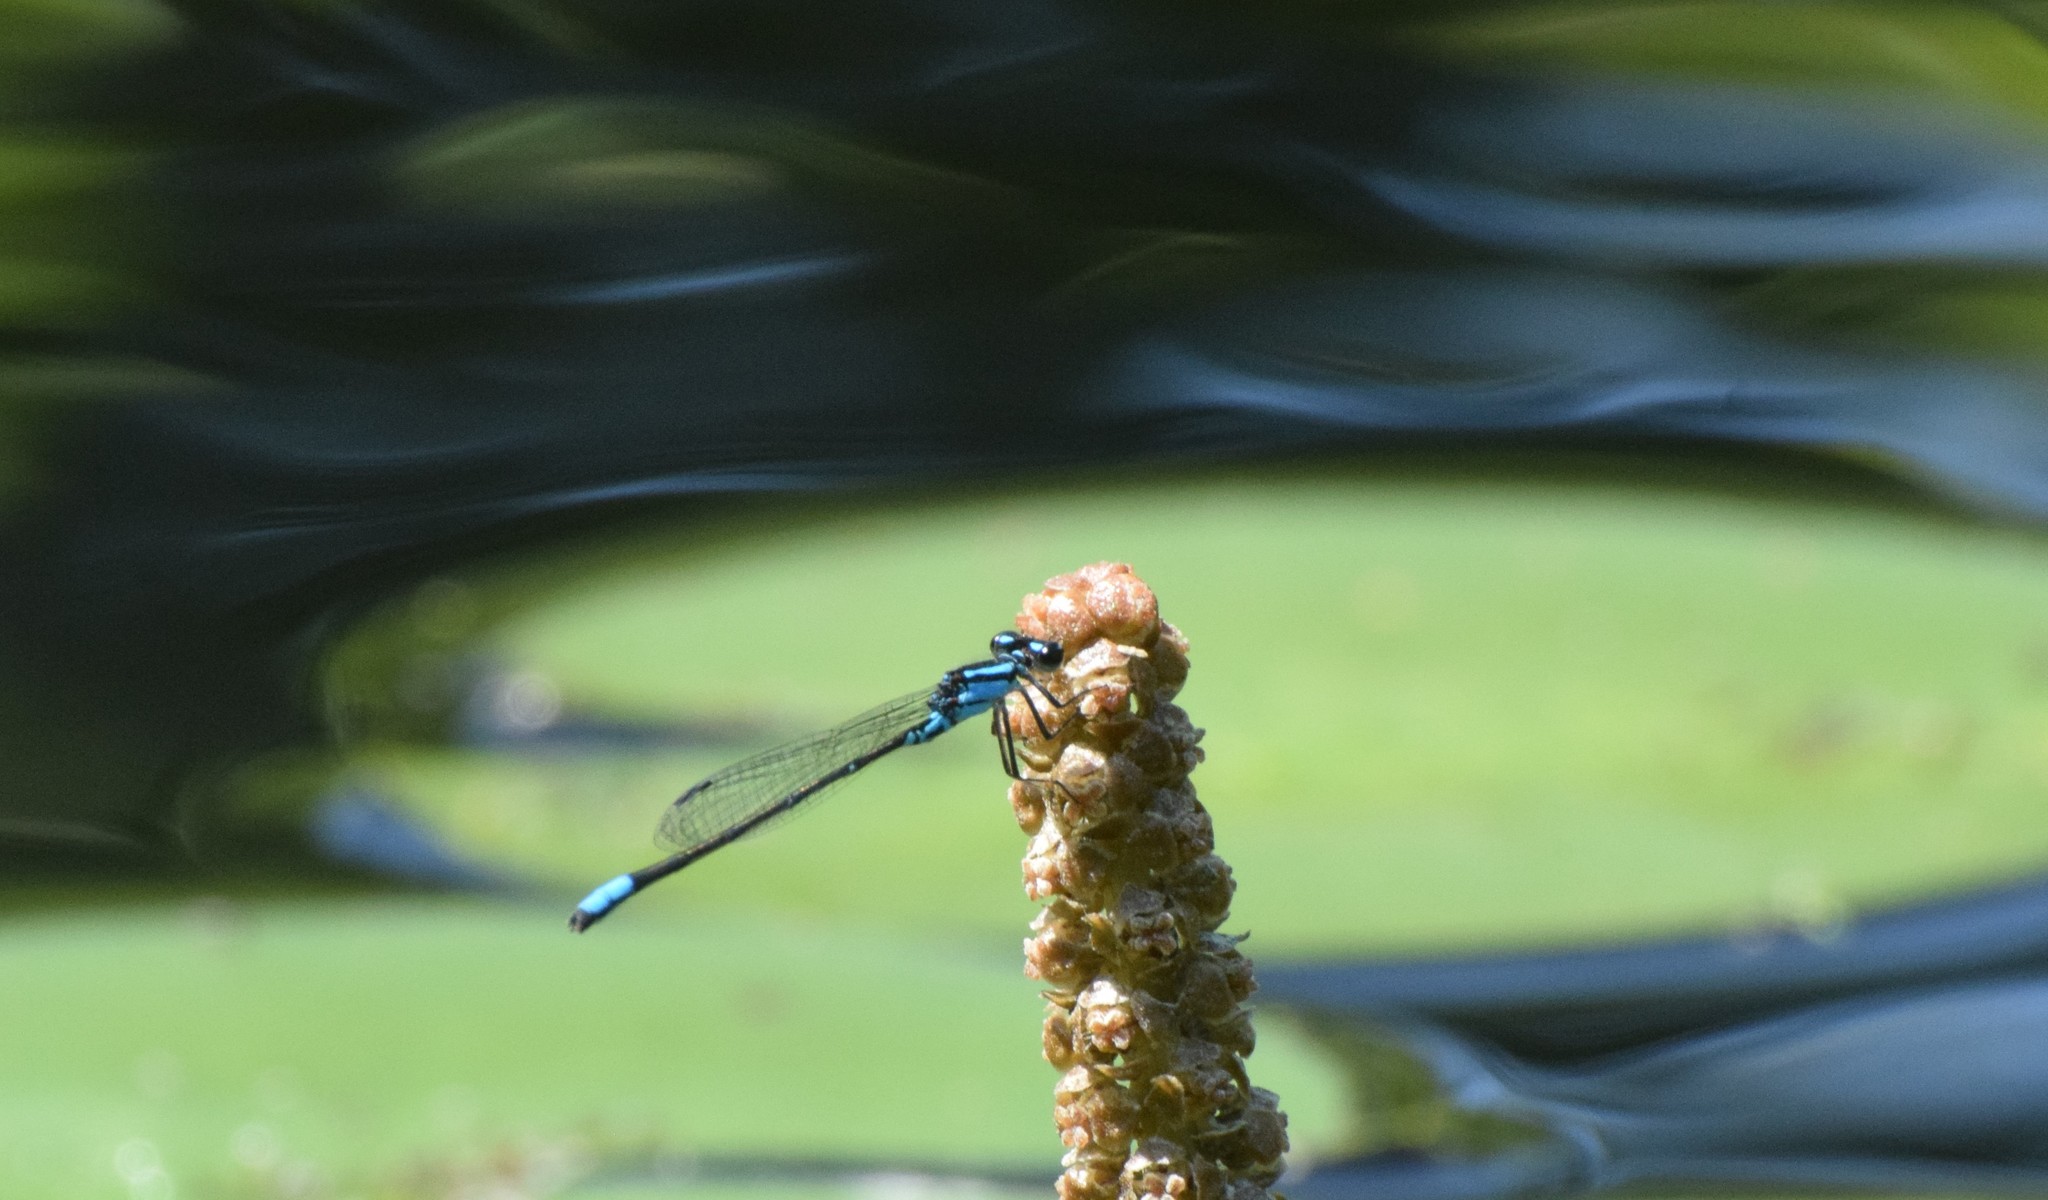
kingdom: Animalia
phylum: Arthropoda
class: Insecta
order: Odonata
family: Coenagrionidae
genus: Enallagma
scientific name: Enallagma geminatum
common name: Skimming bluet
